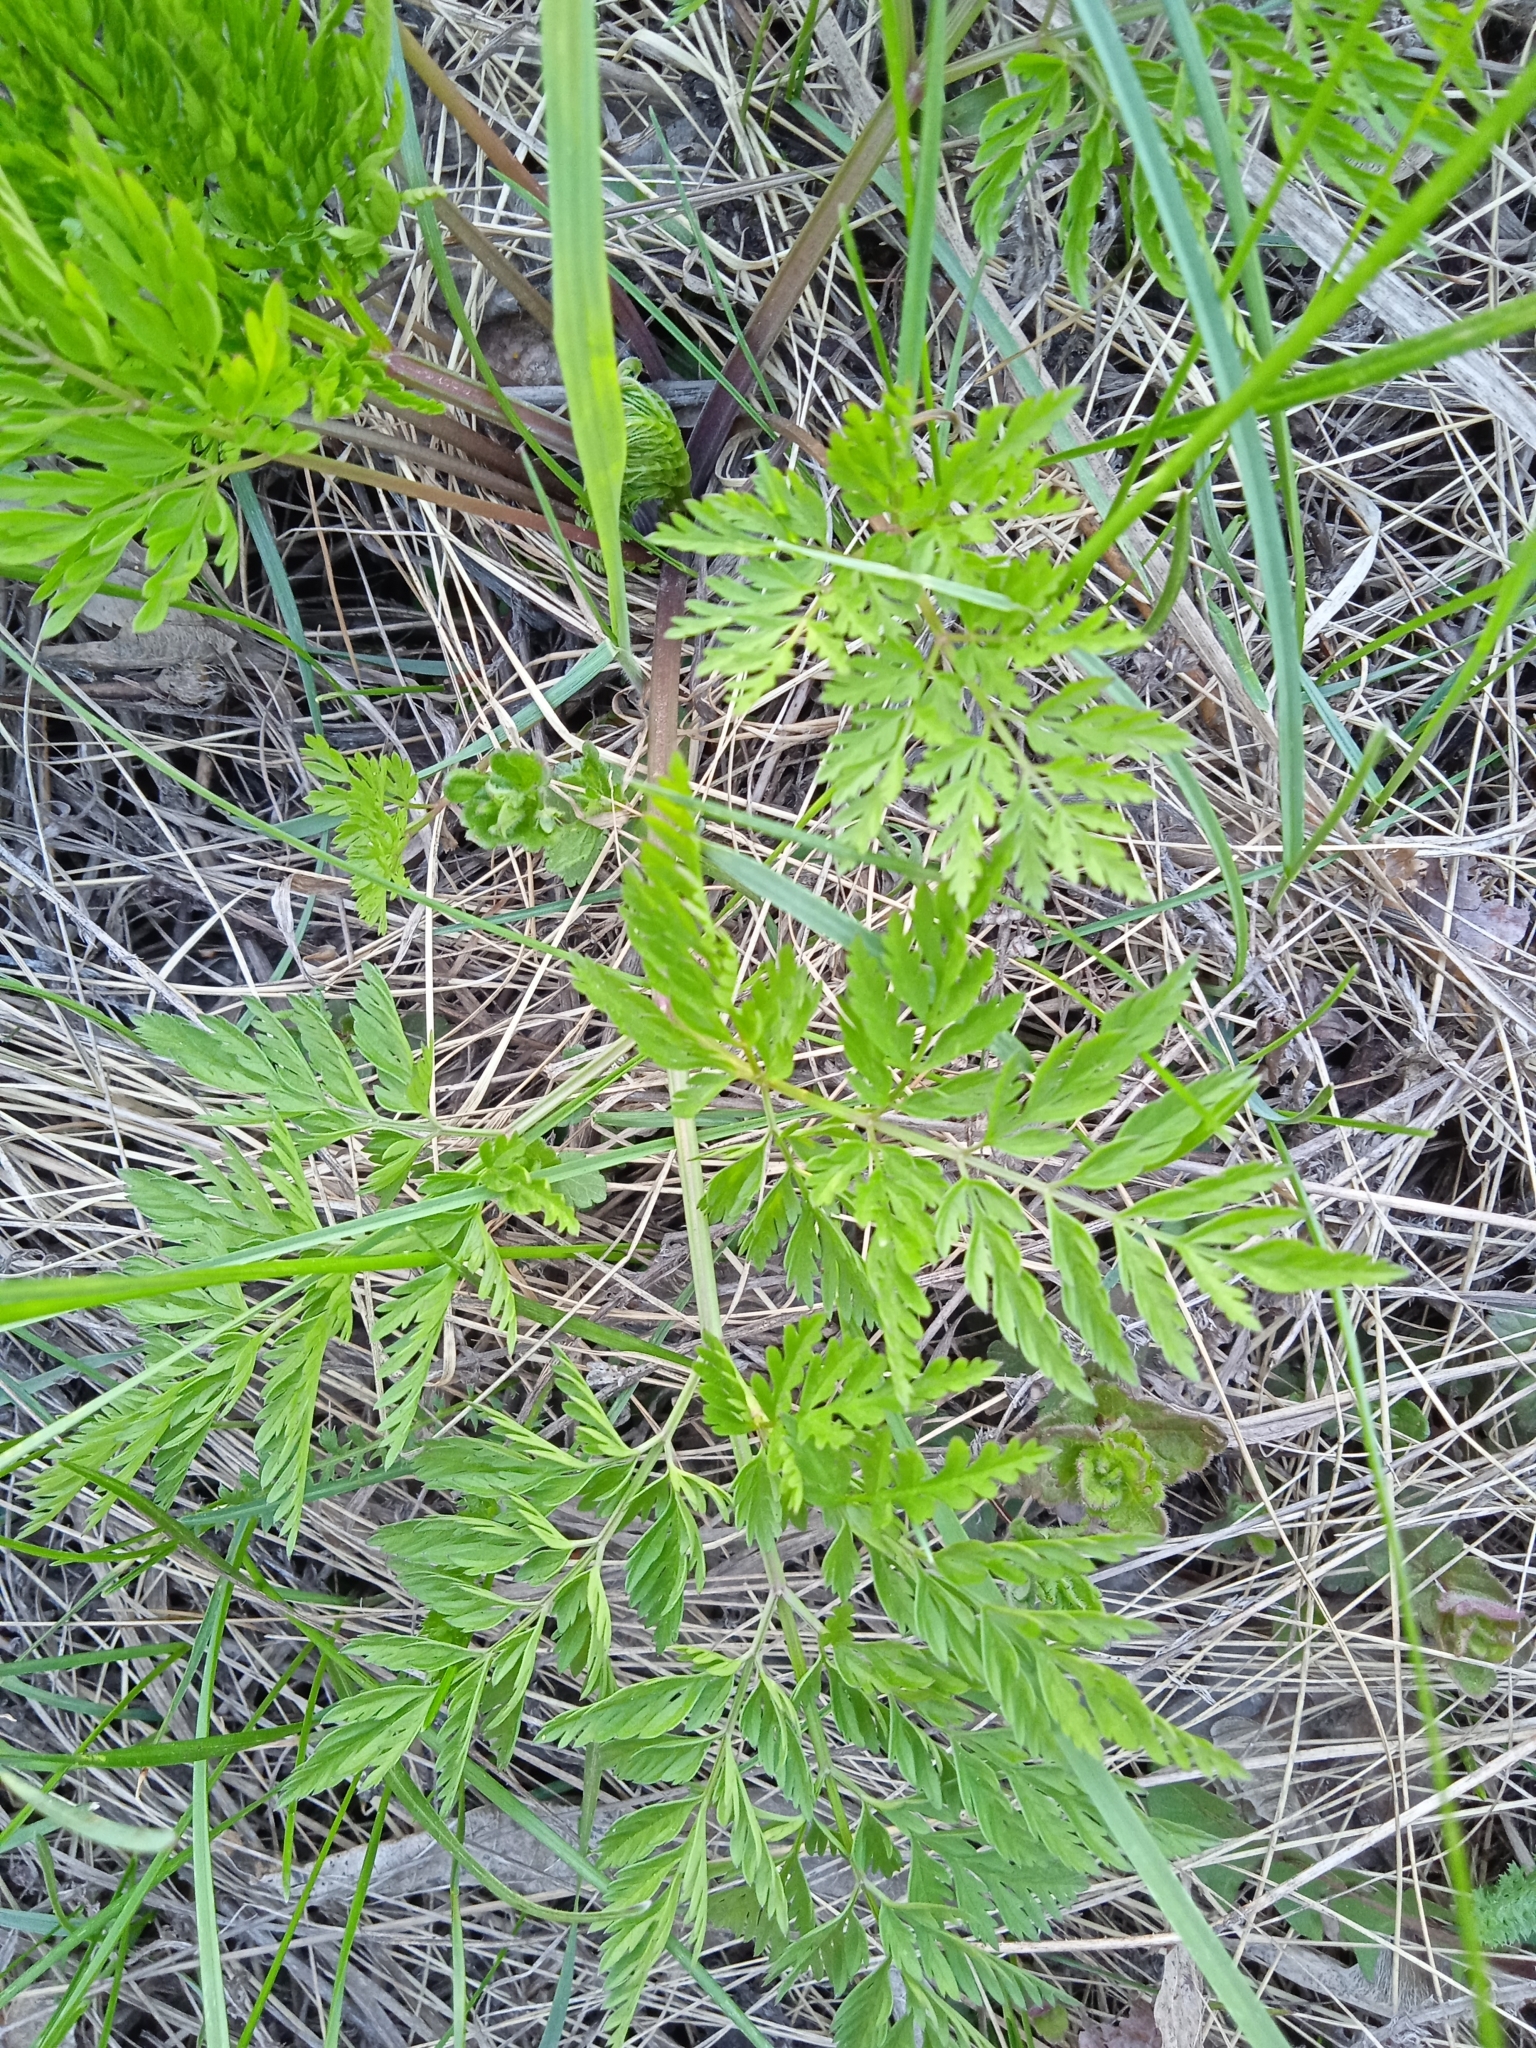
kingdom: Plantae
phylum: Tracheophyta
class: Magnoliopsida
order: Apiales
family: Apiaceae
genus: Anthriscus
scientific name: Anthriscus sylvestris
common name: Cow parsley
